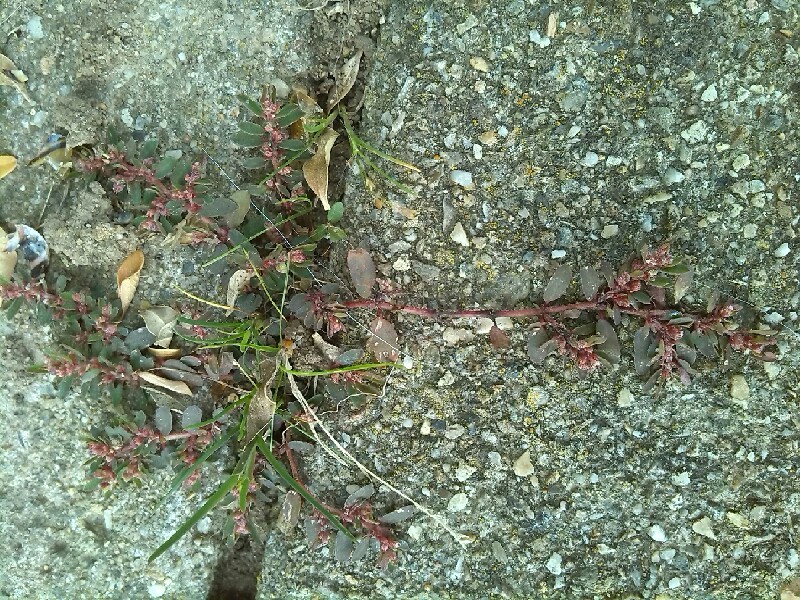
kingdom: Plantae
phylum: Tracheophyta
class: Magnoliopsida
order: Malpighiales
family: Euphorbiaceae
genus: Euphorbia
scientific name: Euphorbia maculata
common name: Spotted spurge
